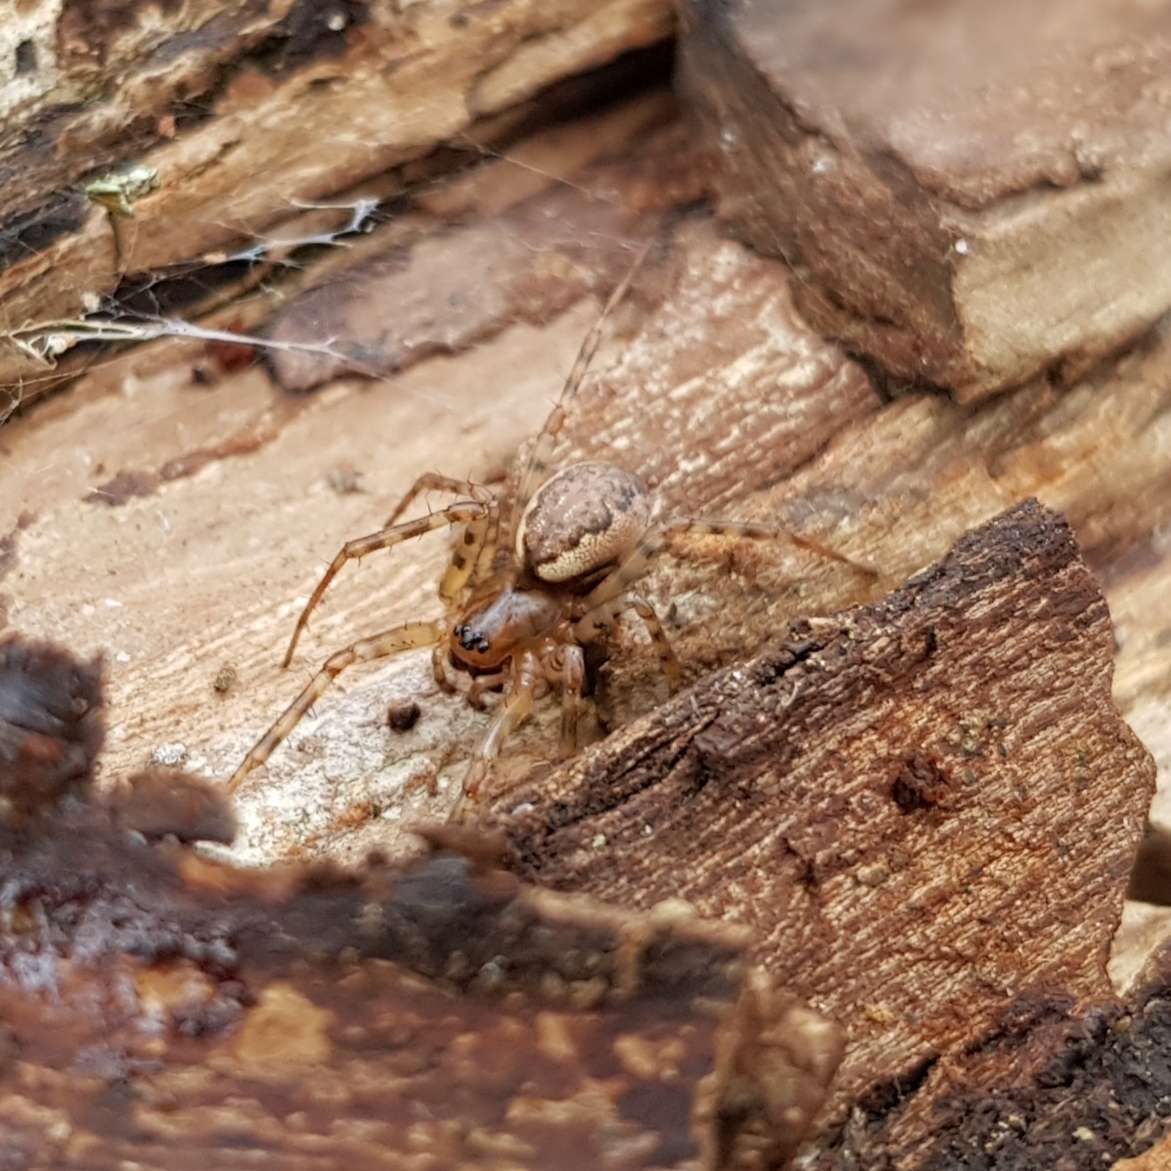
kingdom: Animalia
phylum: Arthropoda
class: Arachnida
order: Araneae
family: Linyphiidae
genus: Neriene
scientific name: Neriene montana
